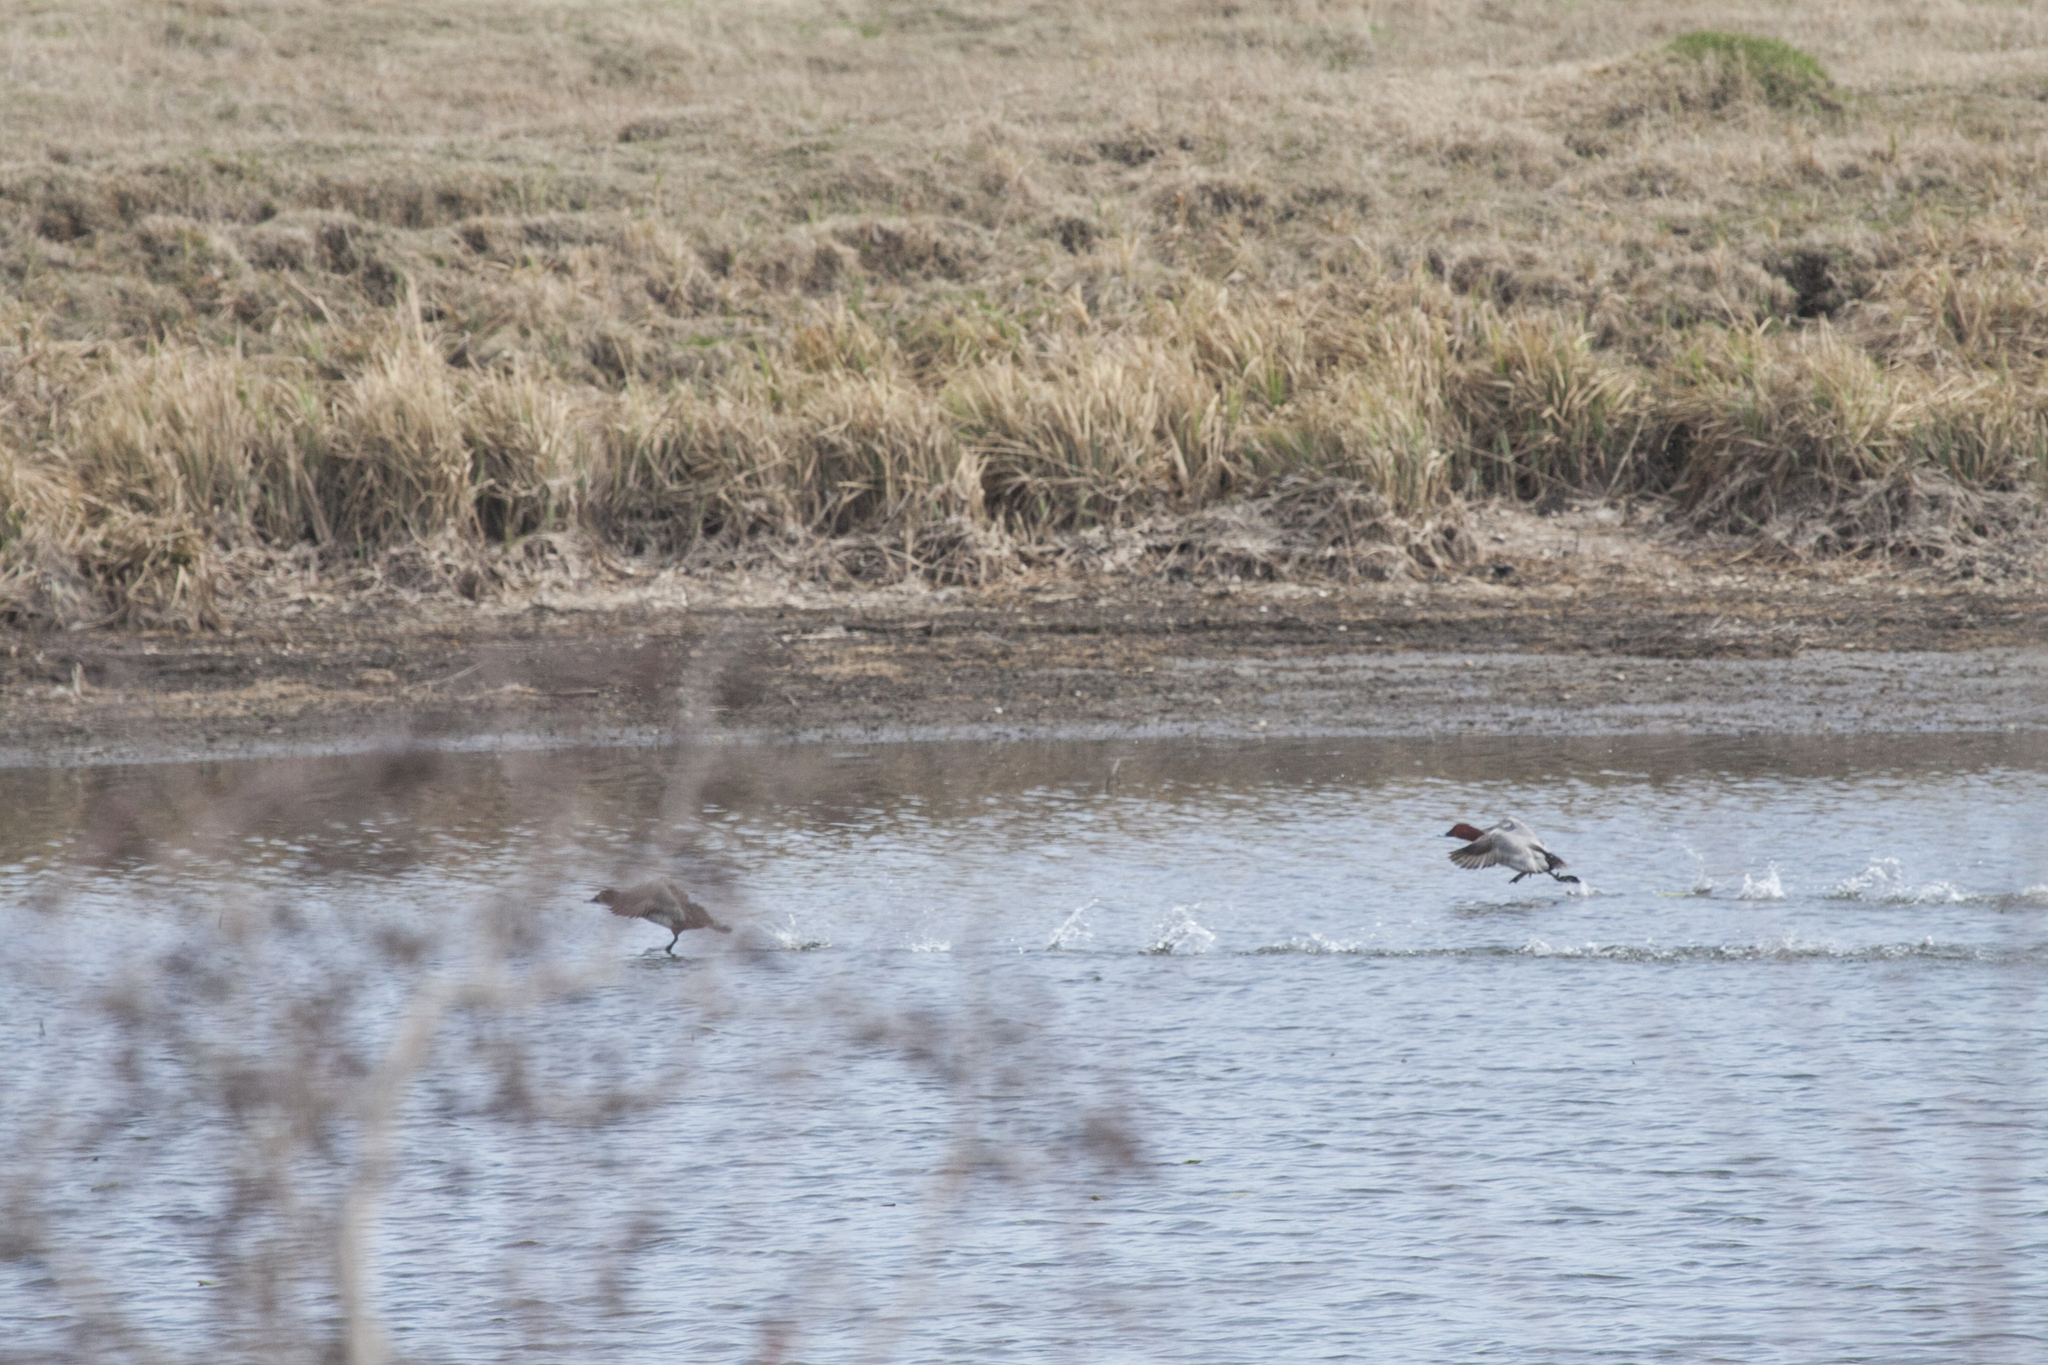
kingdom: Animalia
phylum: Chordata
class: Aves
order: Anseriformes
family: Anatidae
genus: Aythya
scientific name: Aythya ferina
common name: Common pochard
